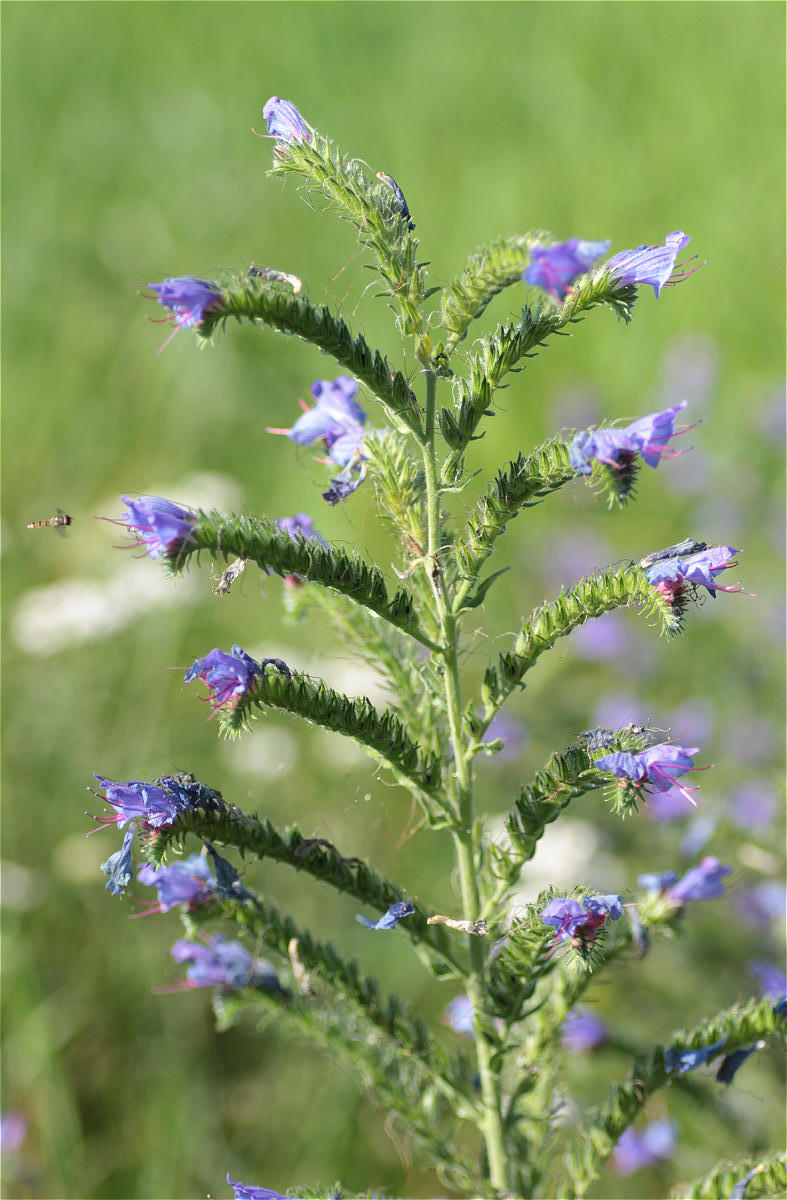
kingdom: Plantae
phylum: Tracheophyta
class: Magnoliopsida
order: Boraginales
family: Boraginaceae
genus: Echium
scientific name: Echium vulgare
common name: Common viper's bugloss
